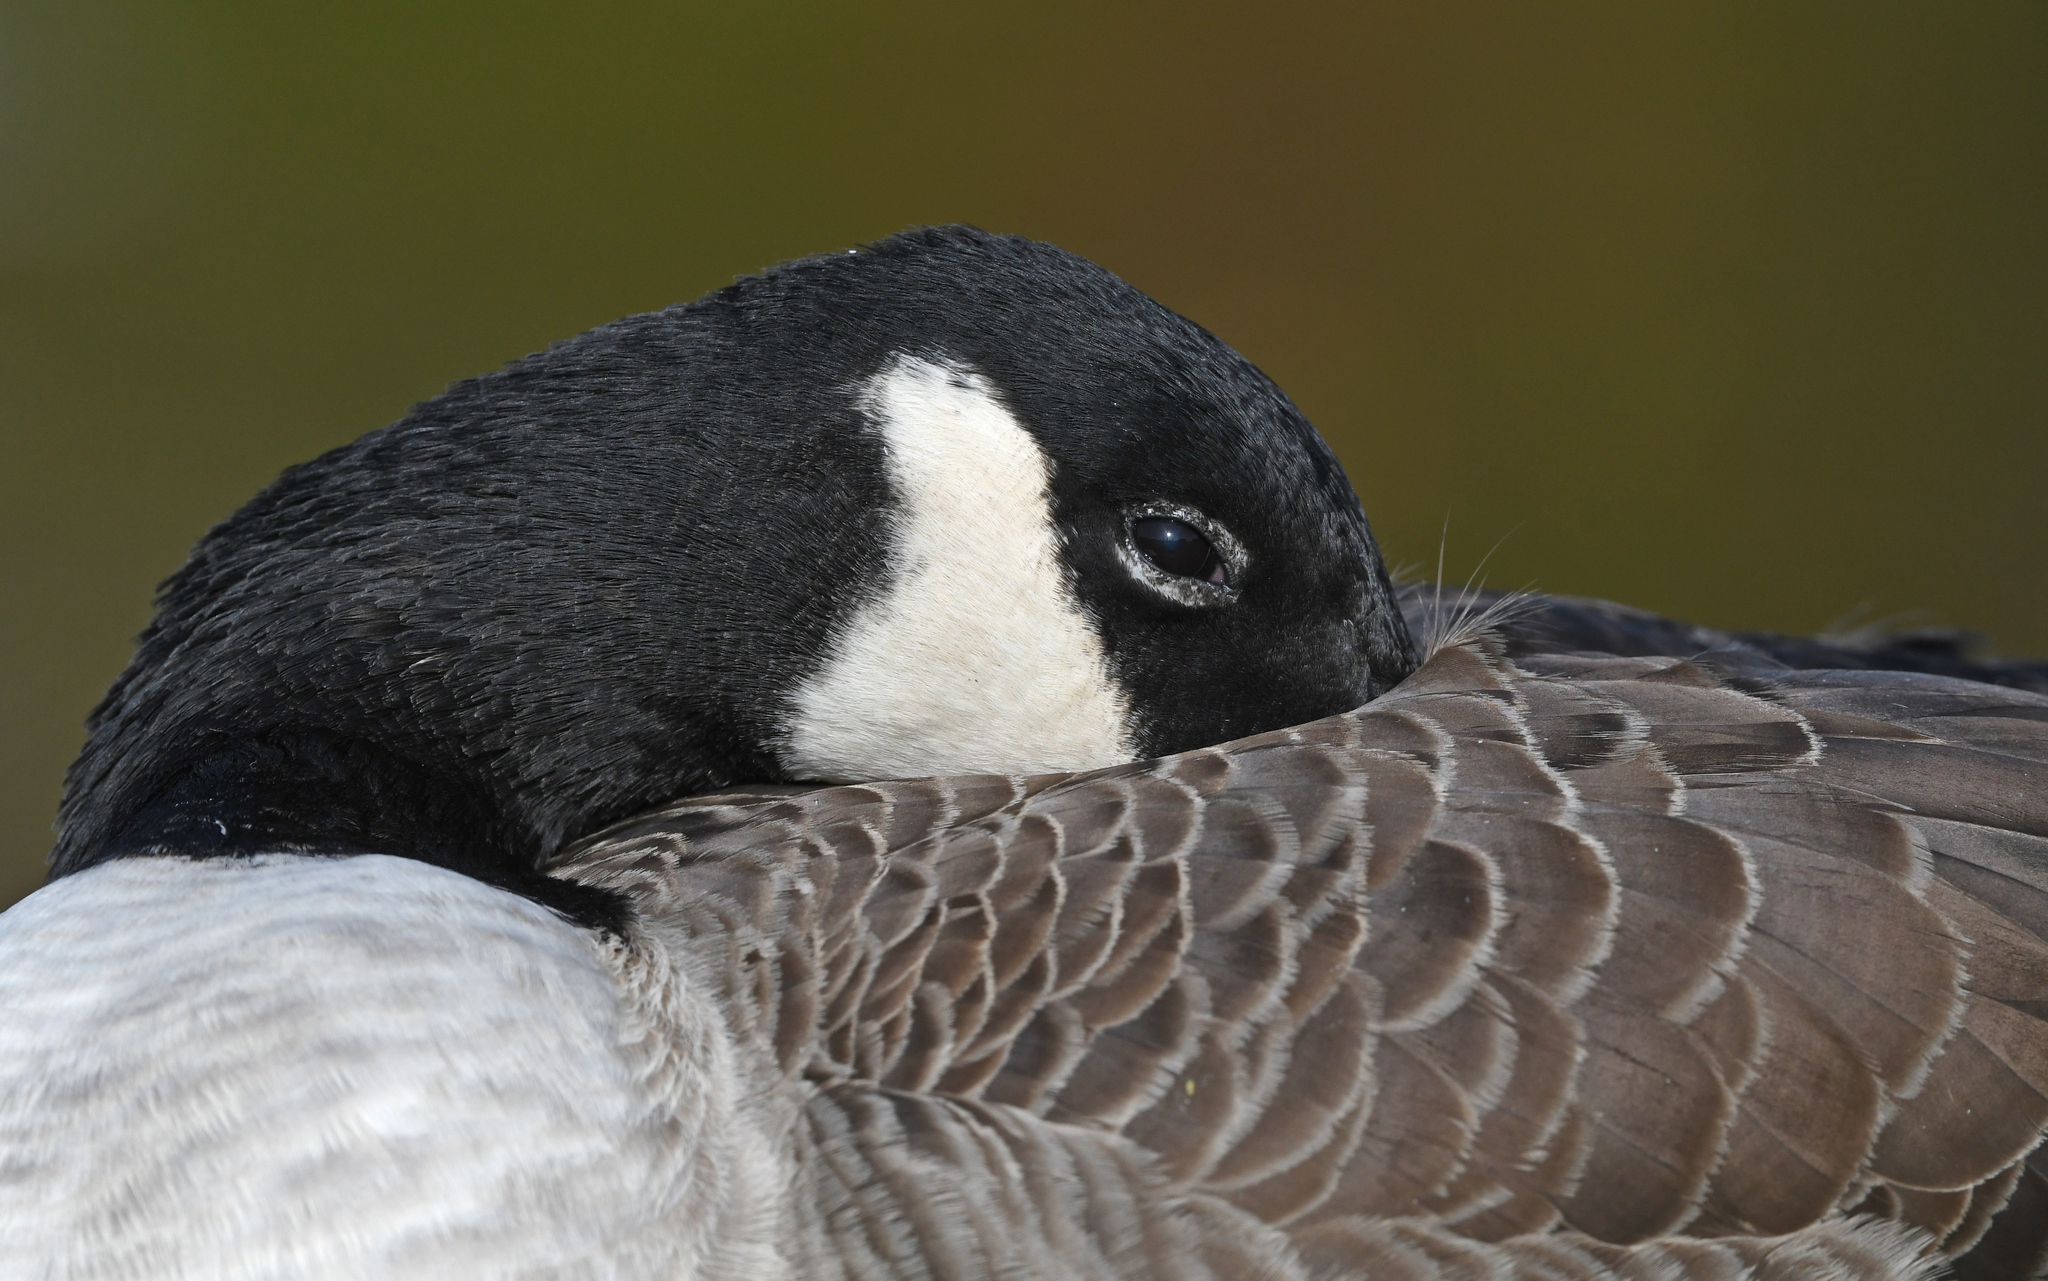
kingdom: Animalia
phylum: Chordata
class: Aves
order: Anseriformes
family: Anatidae
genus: Branta
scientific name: Branta canadensis
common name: Canada goose
